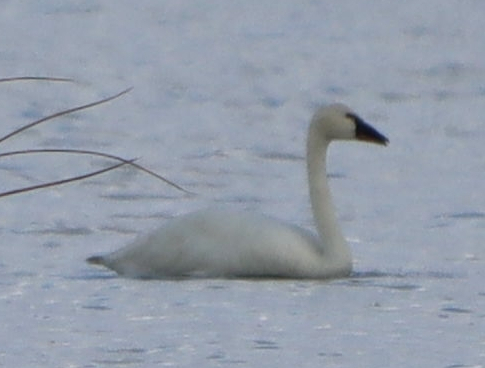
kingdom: Animalia
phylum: Chordata
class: Aves
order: Anseriformes
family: Anatidae
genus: Cygnus
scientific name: Cygnus columbianus
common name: Tundra swan
